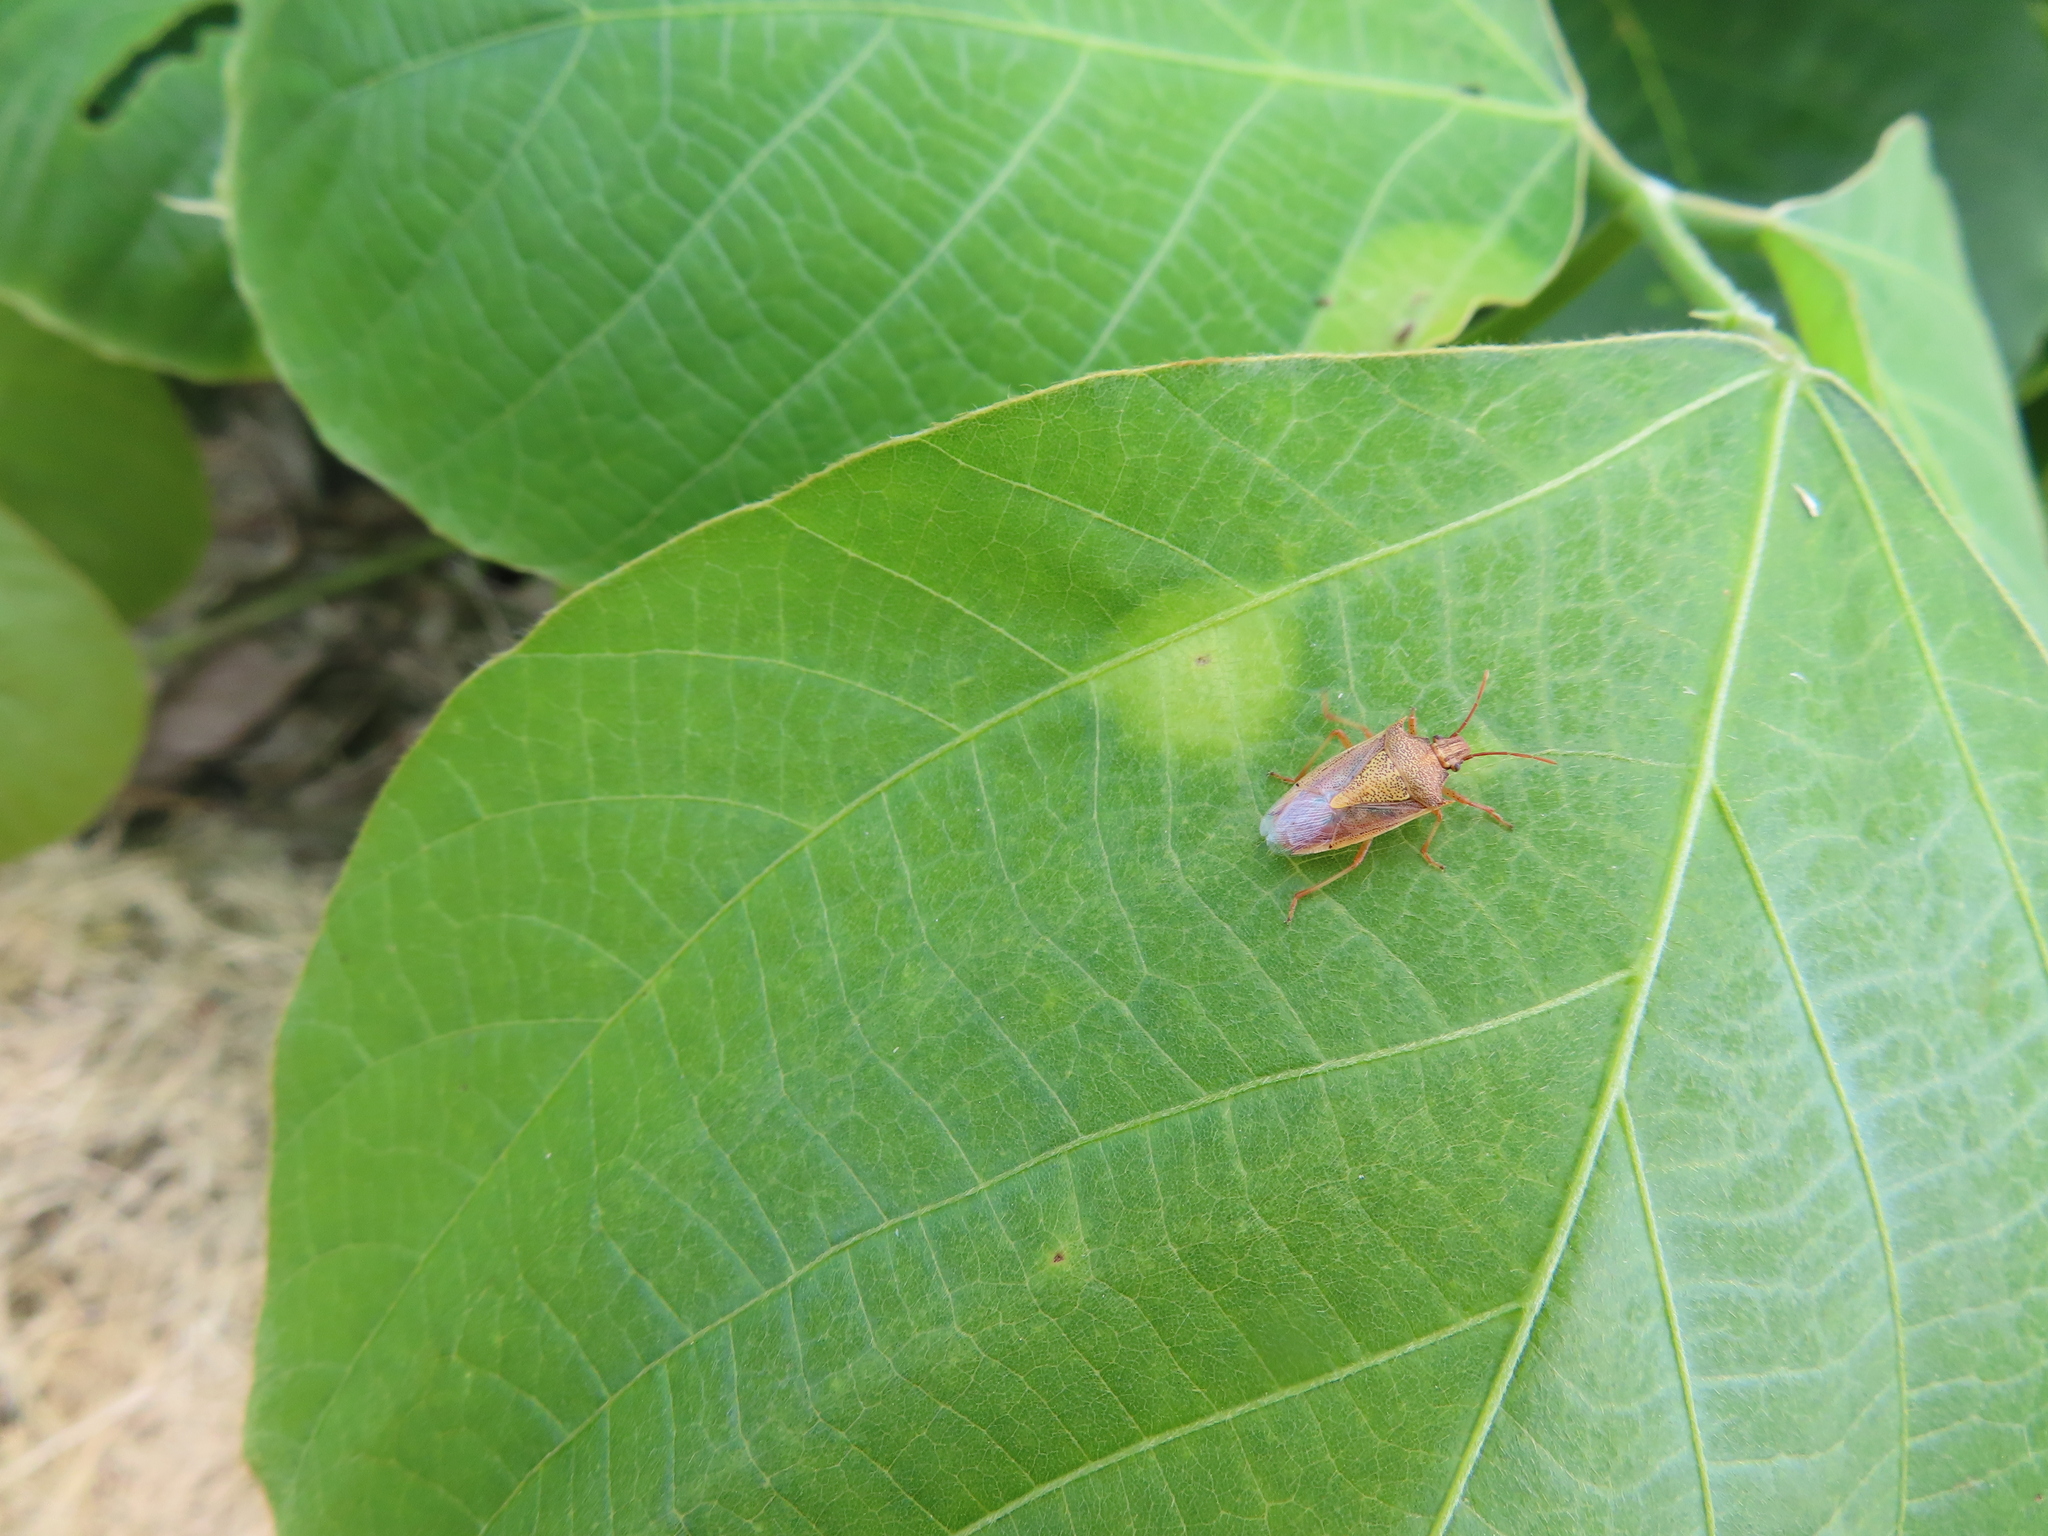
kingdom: Animalia
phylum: Arthropoda
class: Insecta
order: Hemiptera
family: Pentatomidae
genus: Oebalus
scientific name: Oebalus pugnax
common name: Rice stink bug
